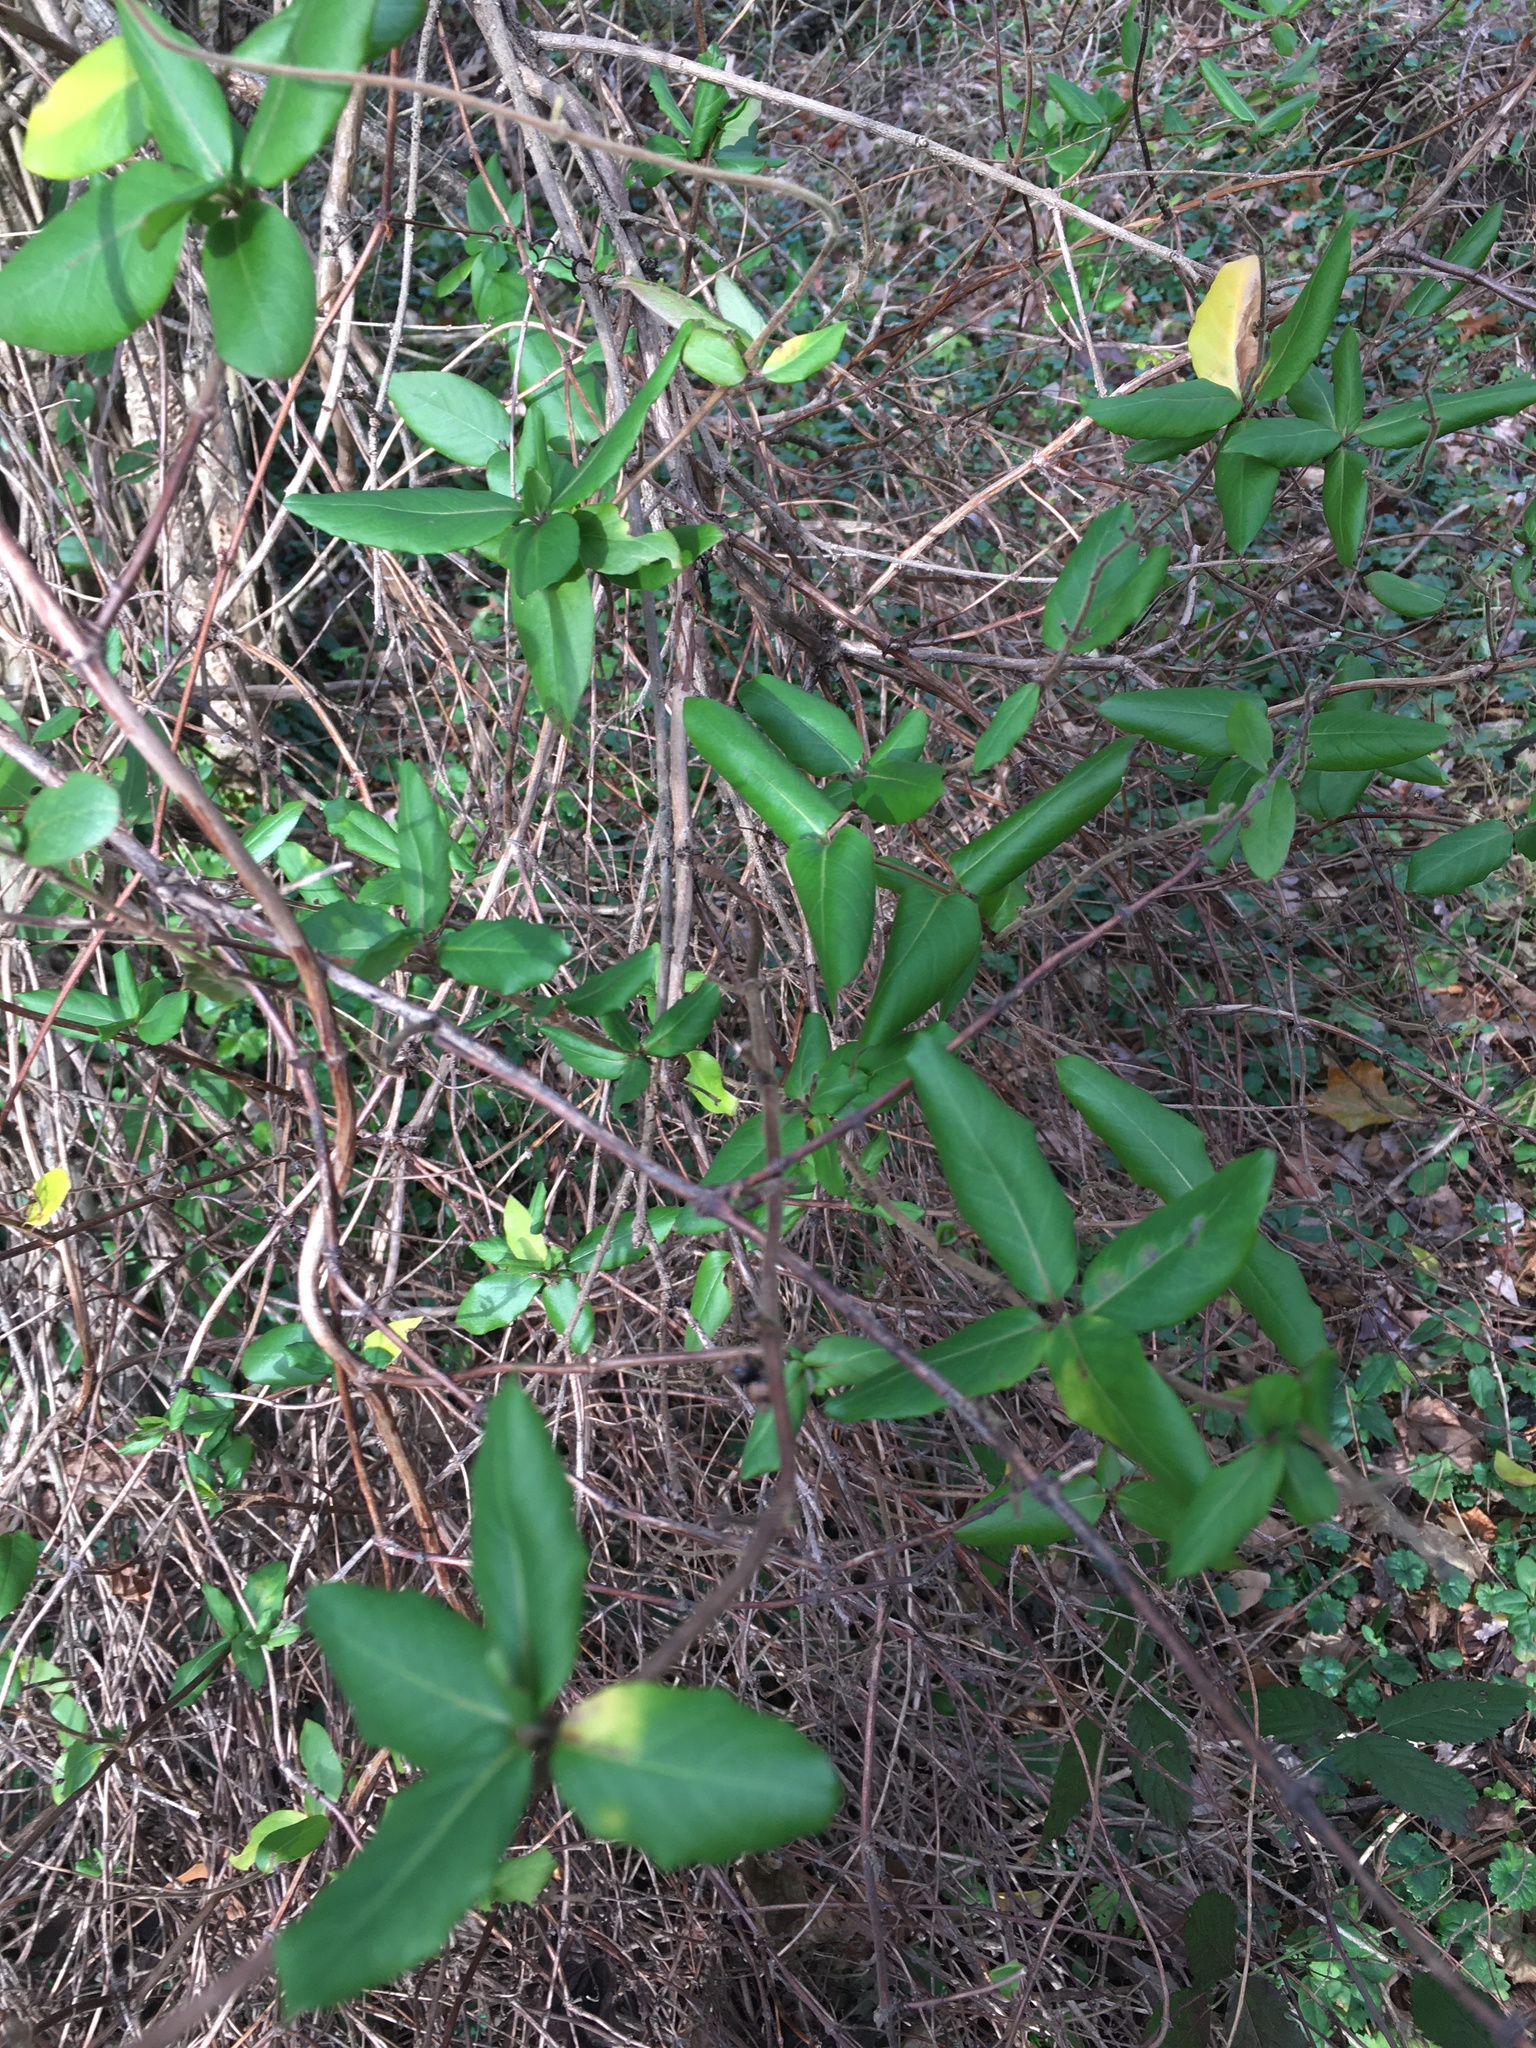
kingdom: Plantae
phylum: Tracheophyta
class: Magnoliopsida
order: Dipsacales
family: Caprifoliaceae
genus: Lonicera
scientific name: Lonicera japonica
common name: Japanese honeysuckle
